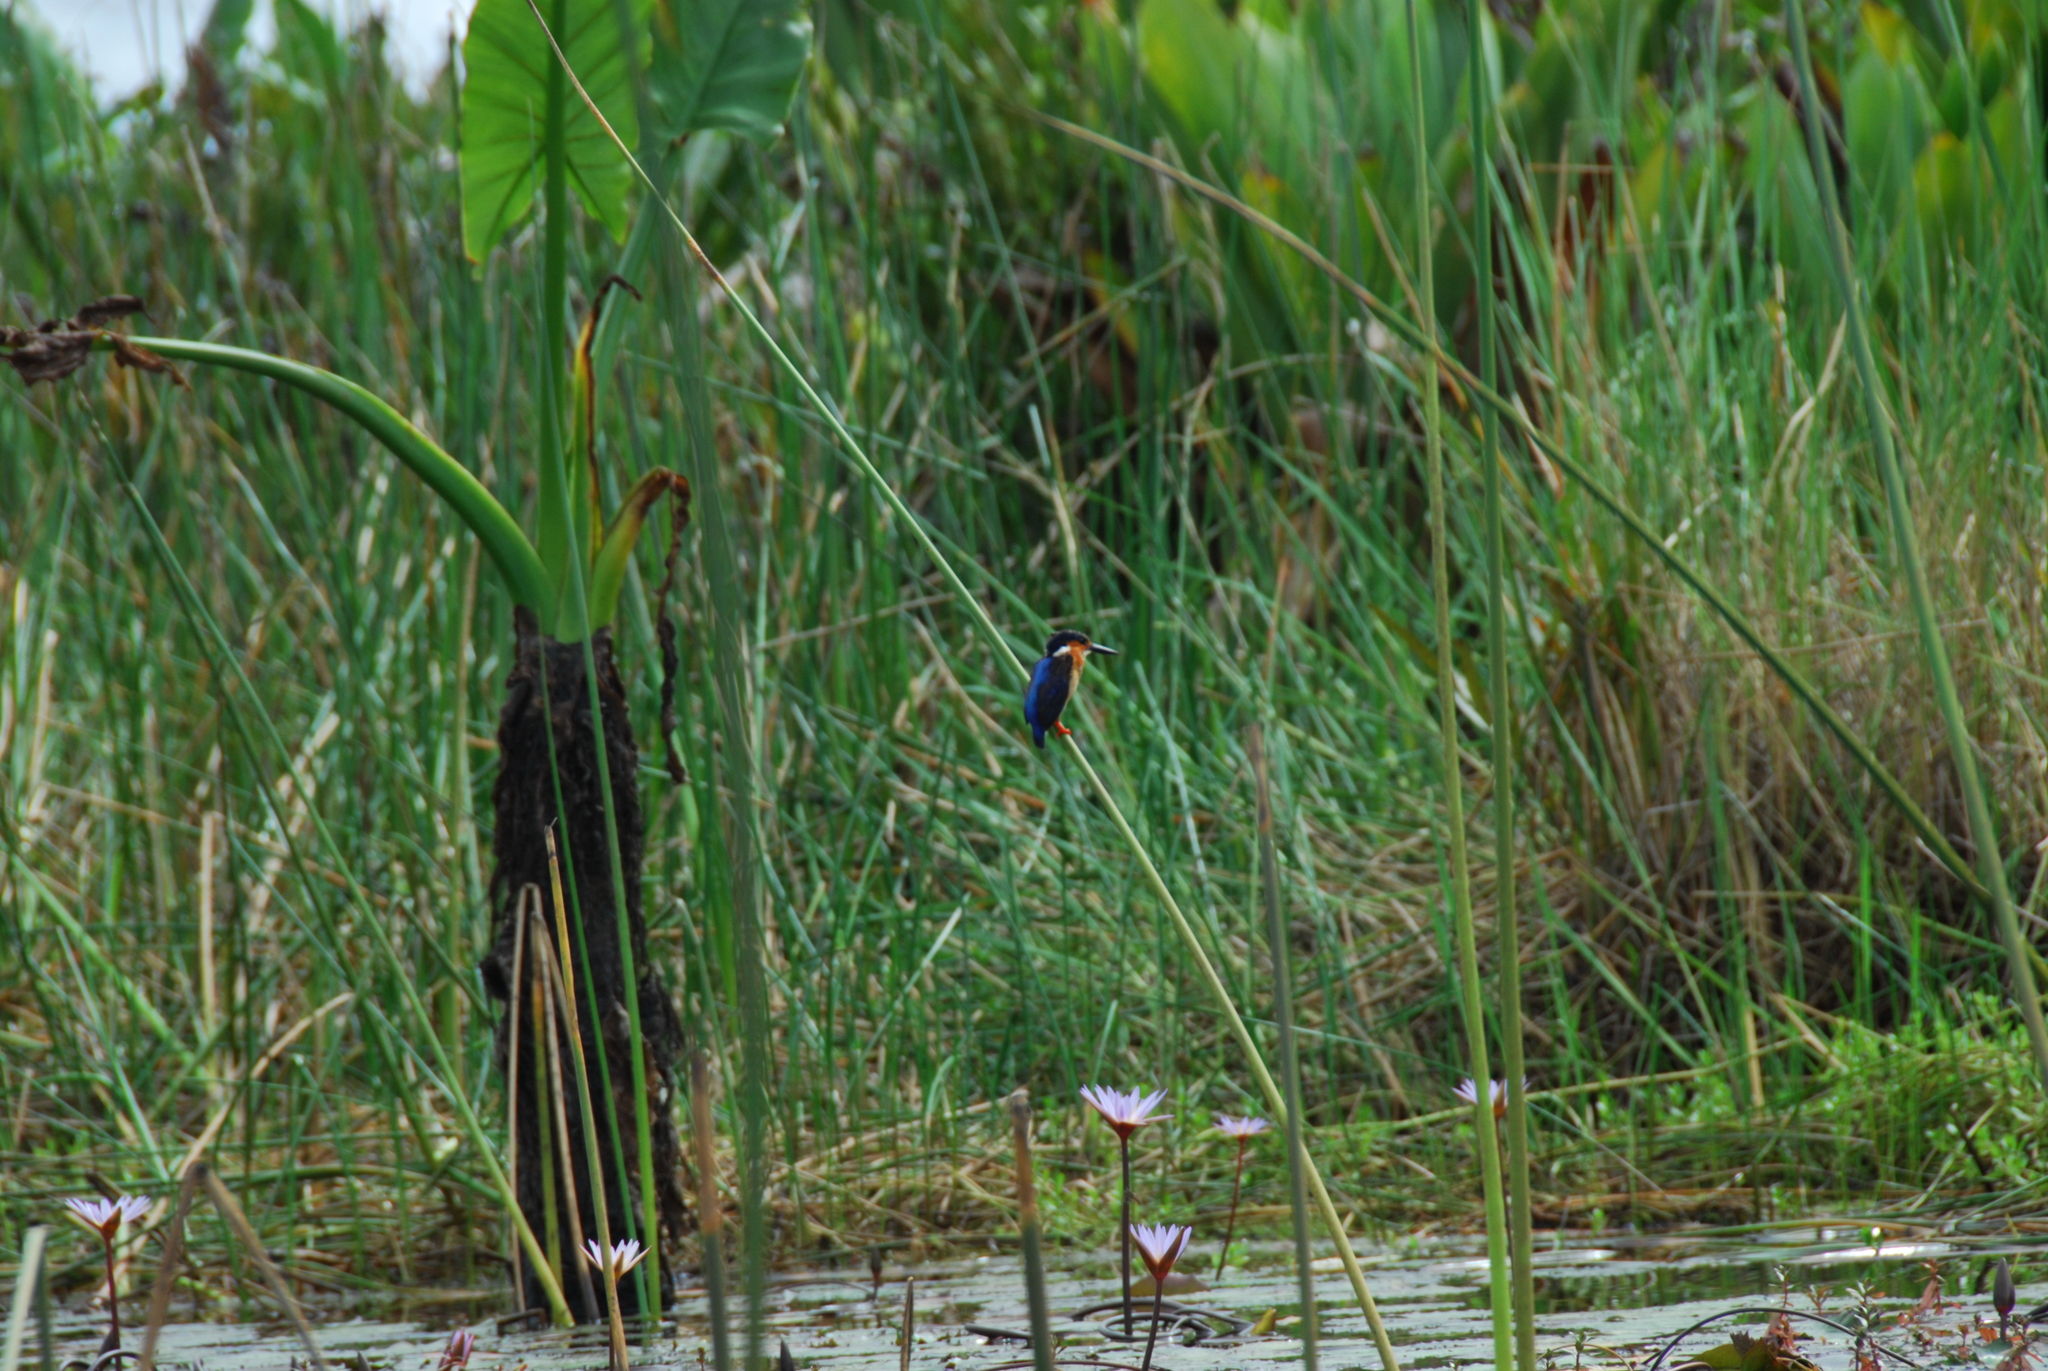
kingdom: Animalia
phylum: Chordata
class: Aves
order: Coraciiformes
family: Alcedinidae
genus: Corythornis
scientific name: Corythornis vintsioides
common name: Malagasy kingfisher
